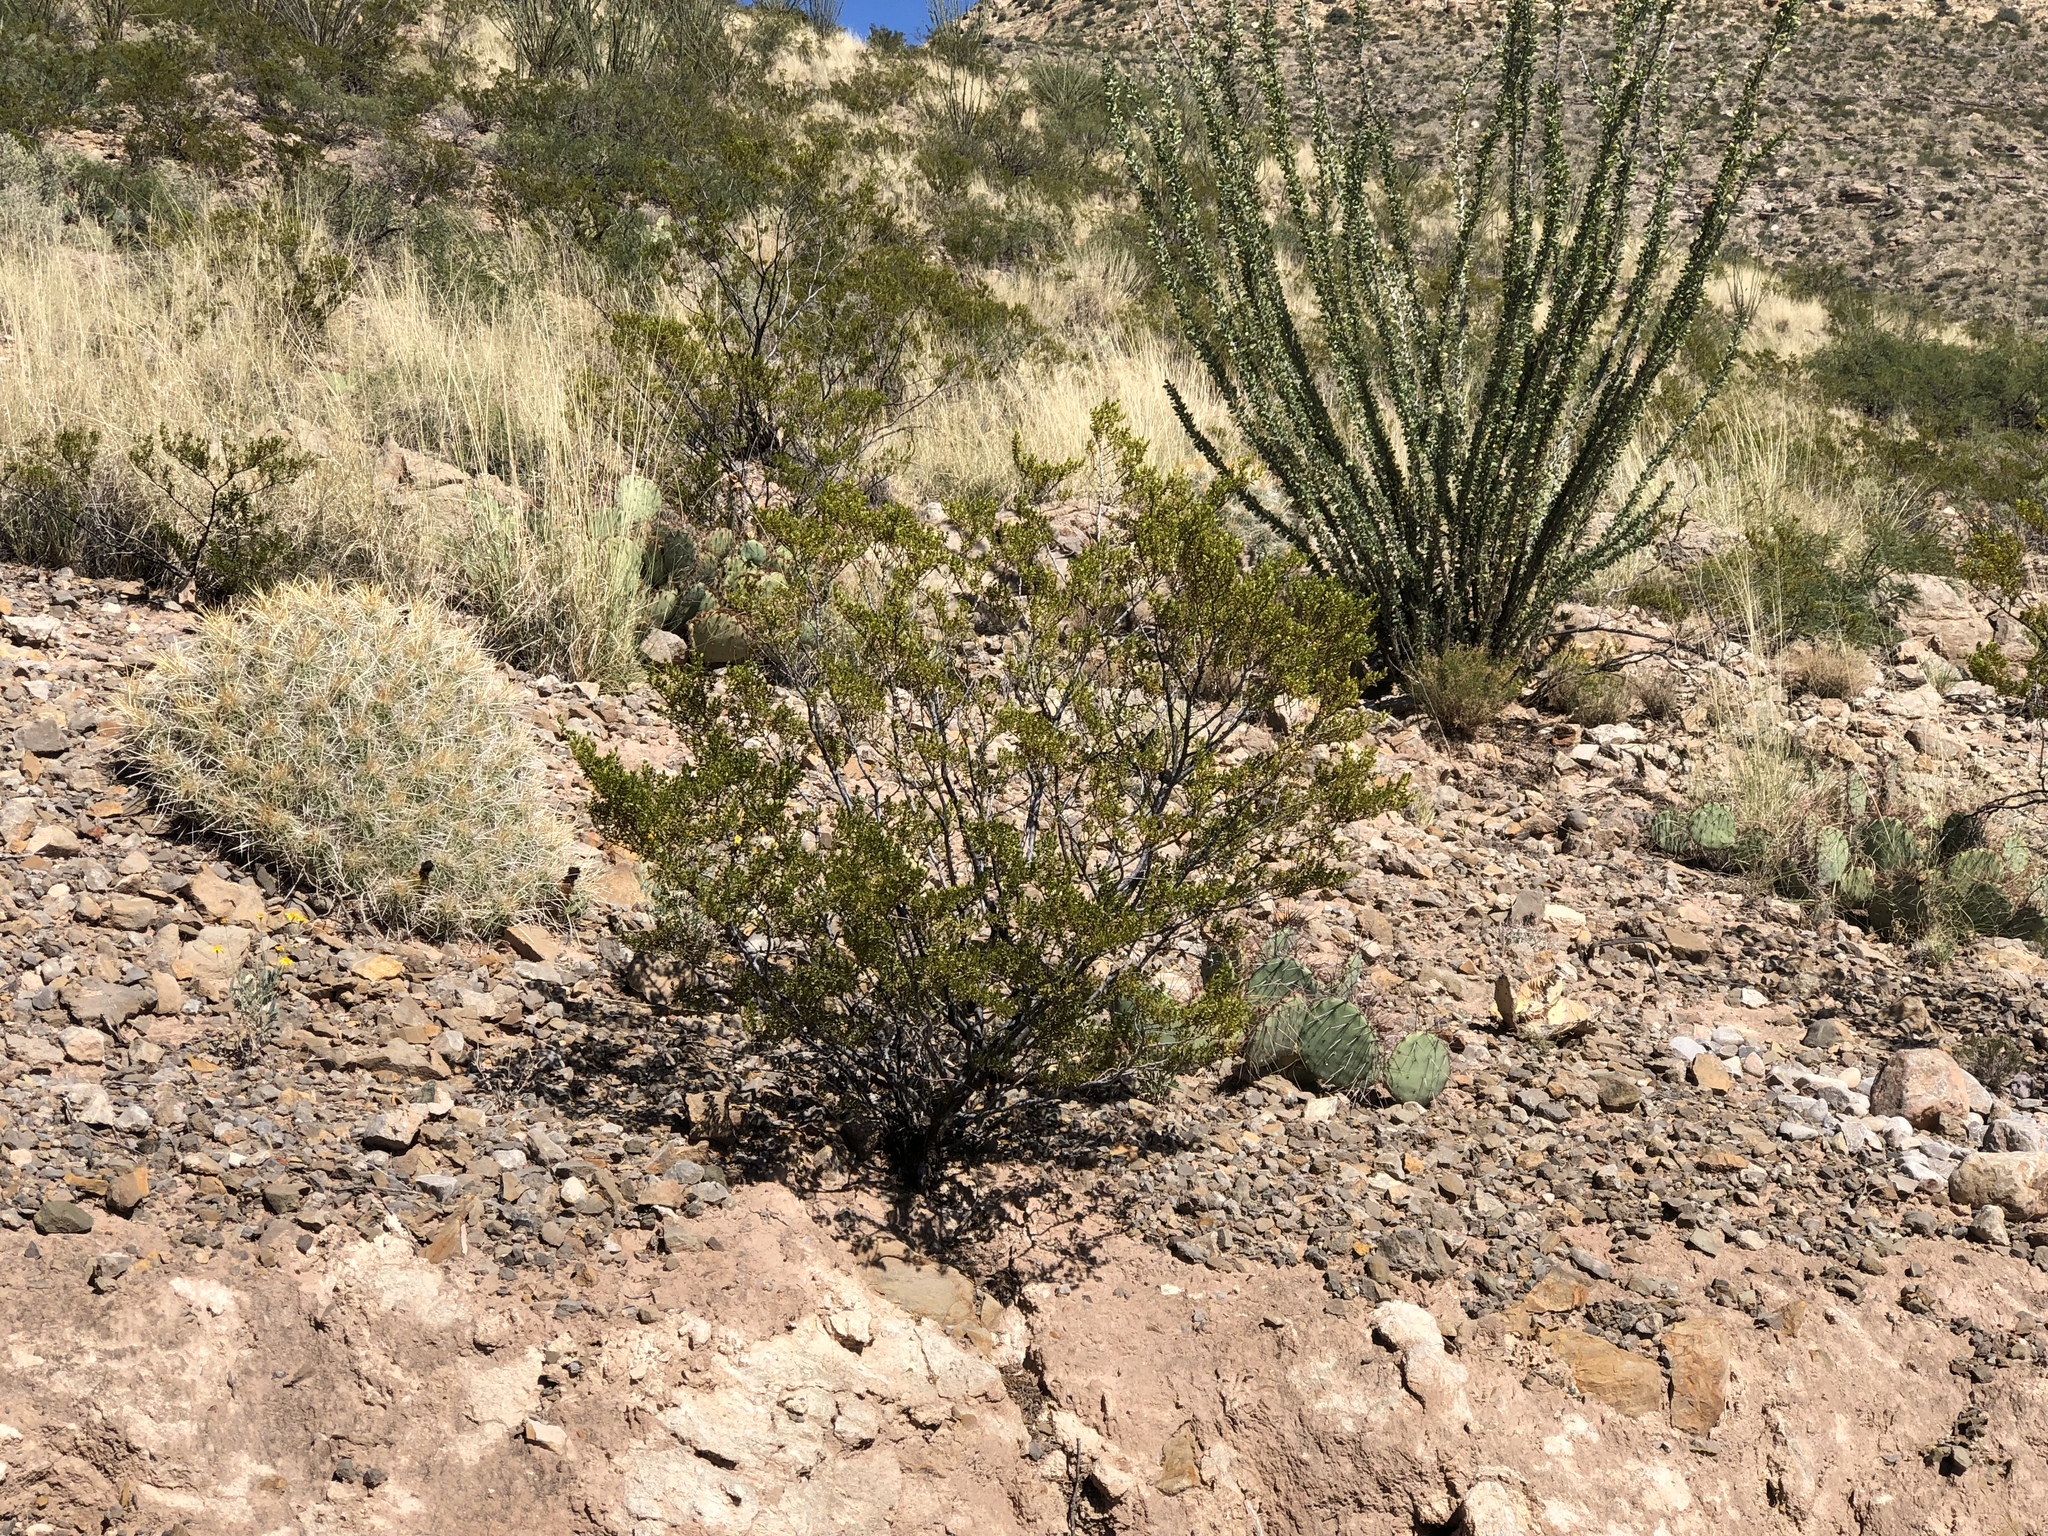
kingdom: Plantae
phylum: Tracheophyta
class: Magnoliopsida
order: Zygophyllales
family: Zygophyllaceae
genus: Larrea
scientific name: Larrea tridentata
